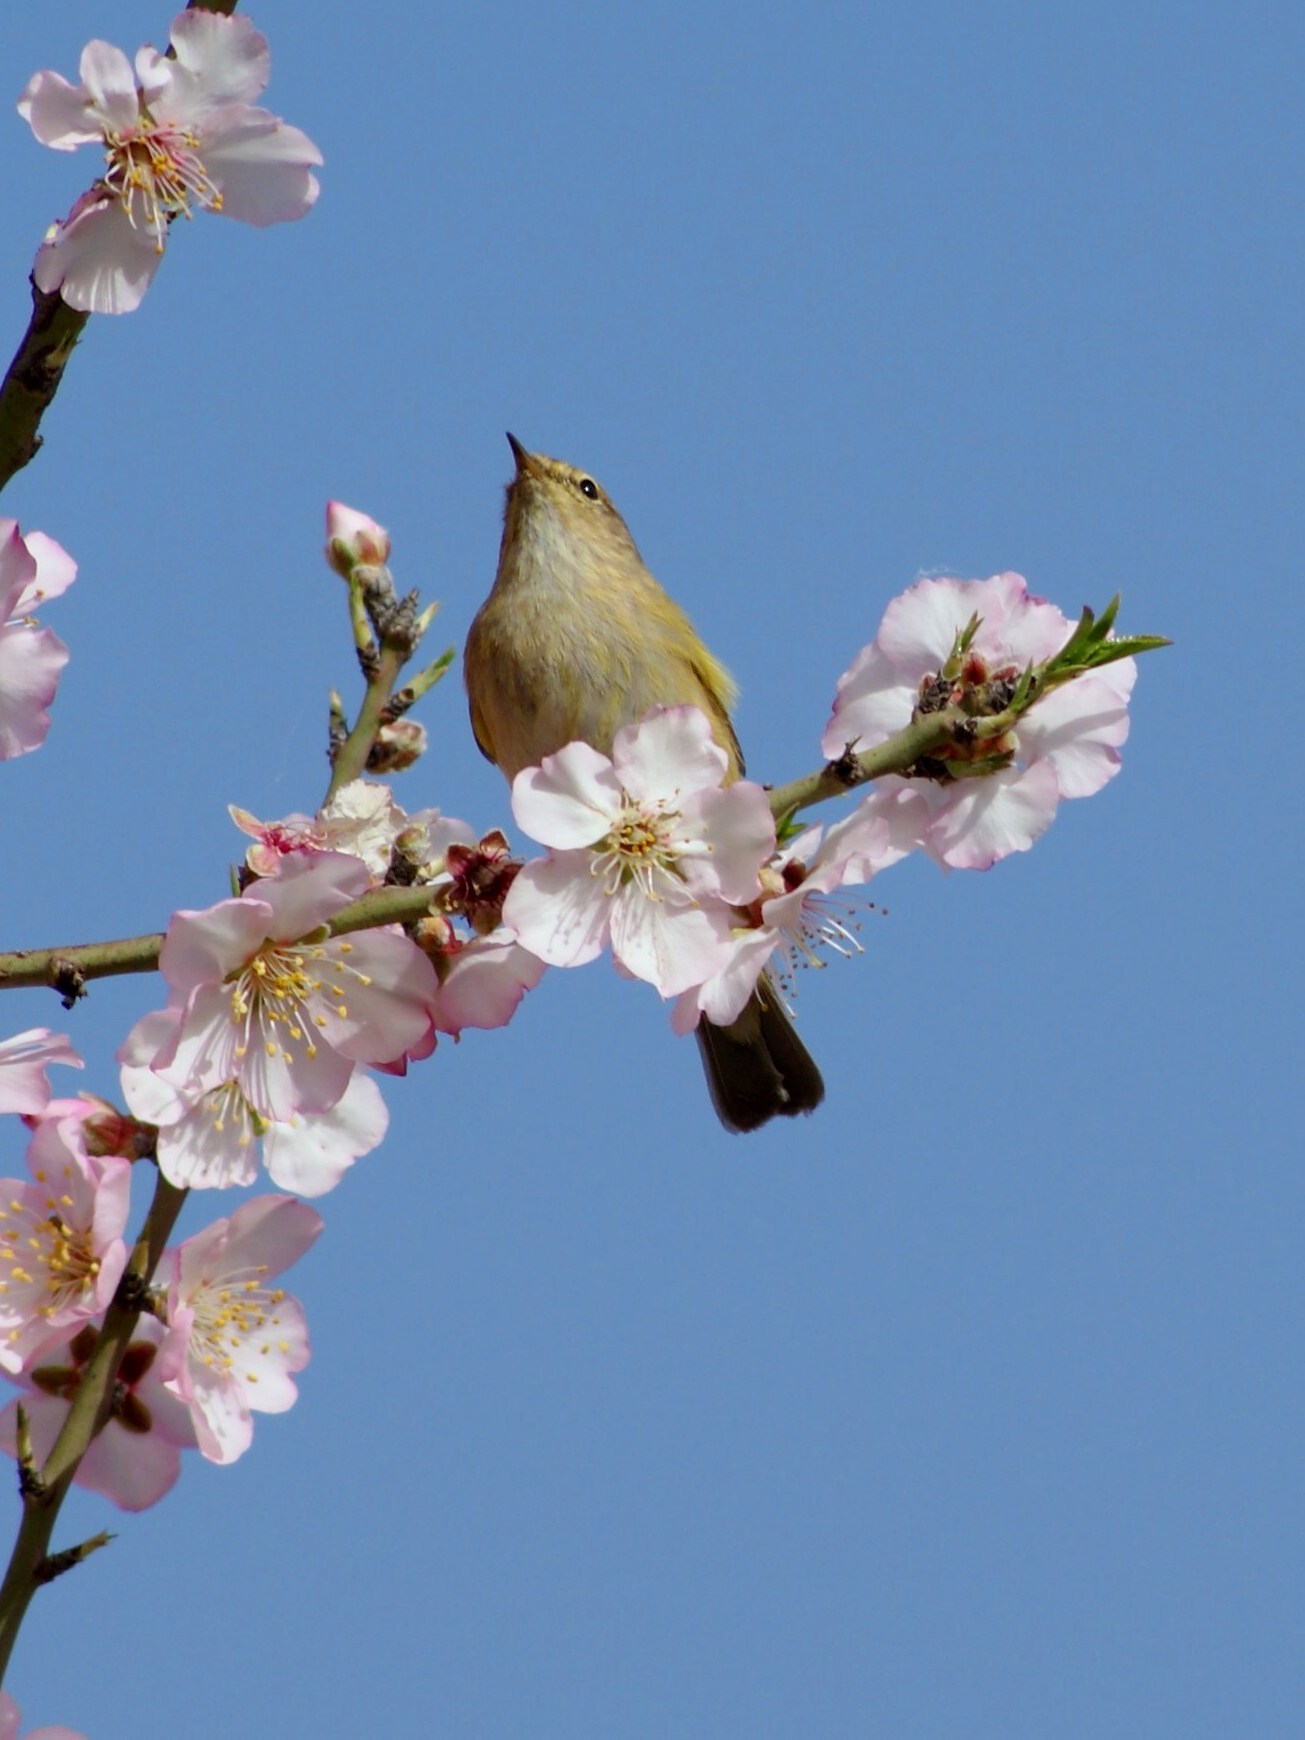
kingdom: Animalia
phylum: Chordata
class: Aves
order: Passeriformes
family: Phylloscopidae
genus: Phylloscopus
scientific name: Phylloscopus collybita
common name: Common chiffchaff
